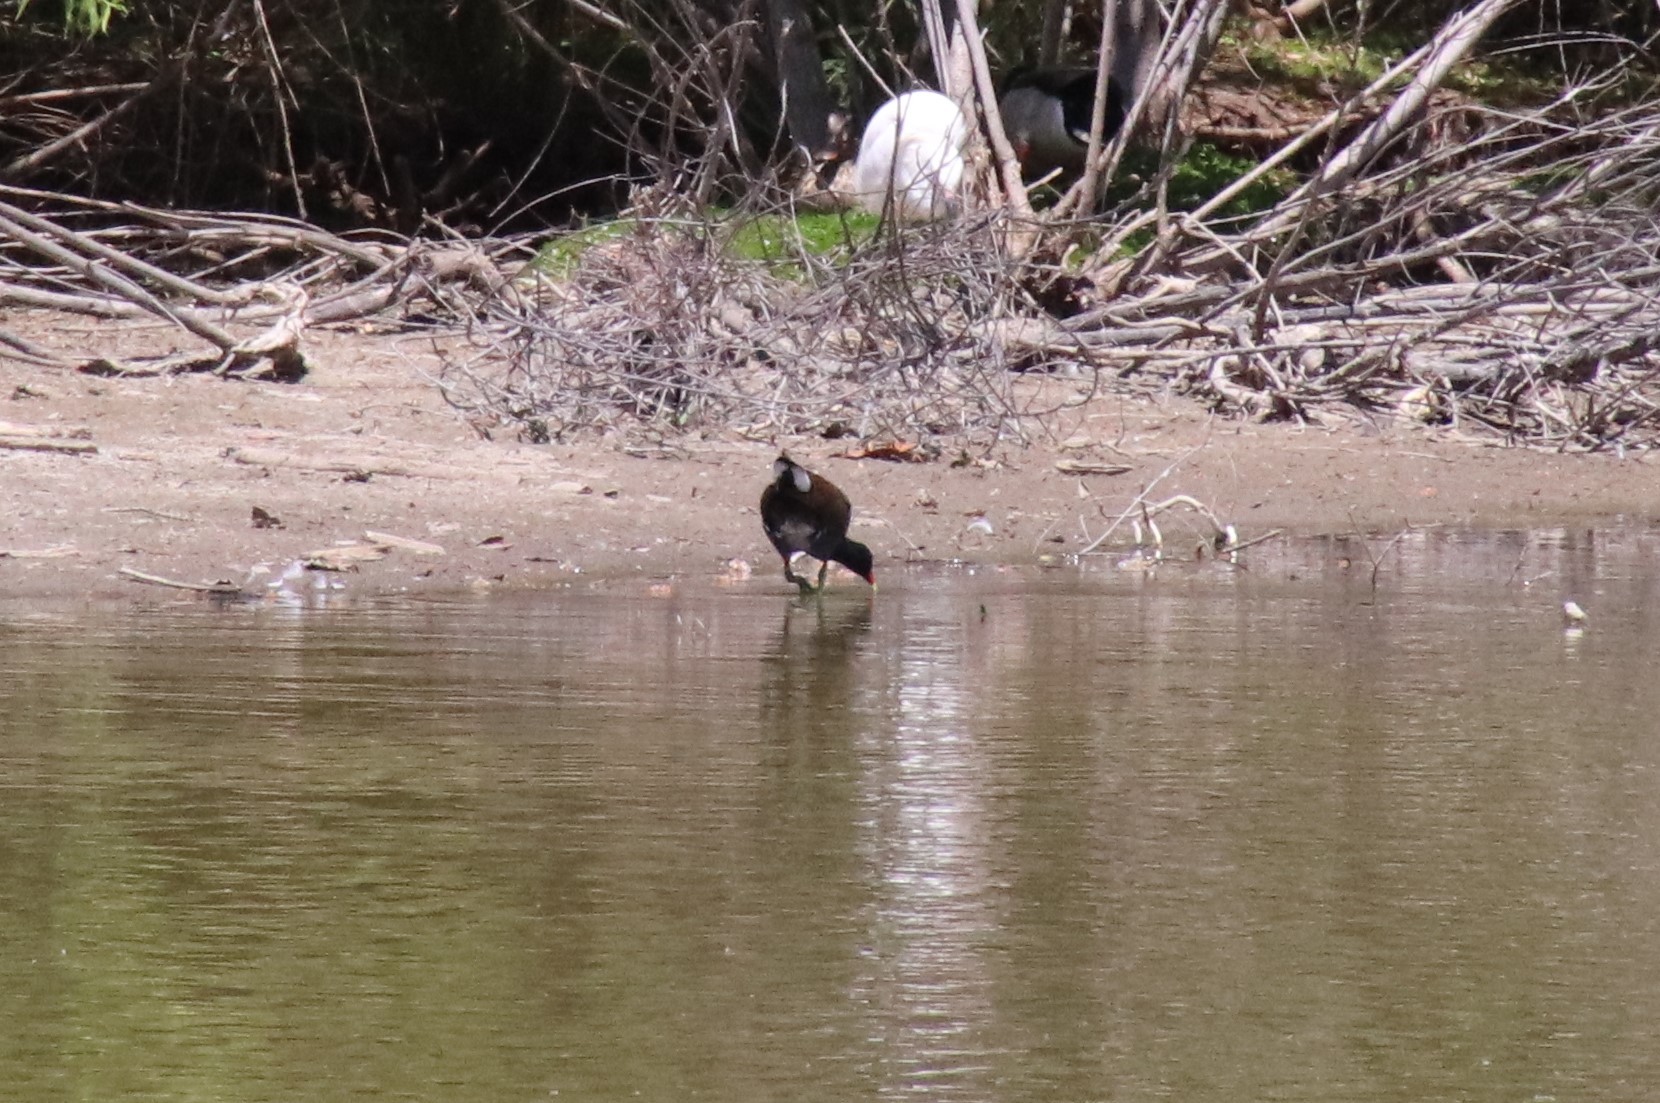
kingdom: Animalia
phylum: Chordata
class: Aves
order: Gruiformes
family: Rallidae
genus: Gallinula
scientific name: Gallinula chloropus
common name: Common moorhen
